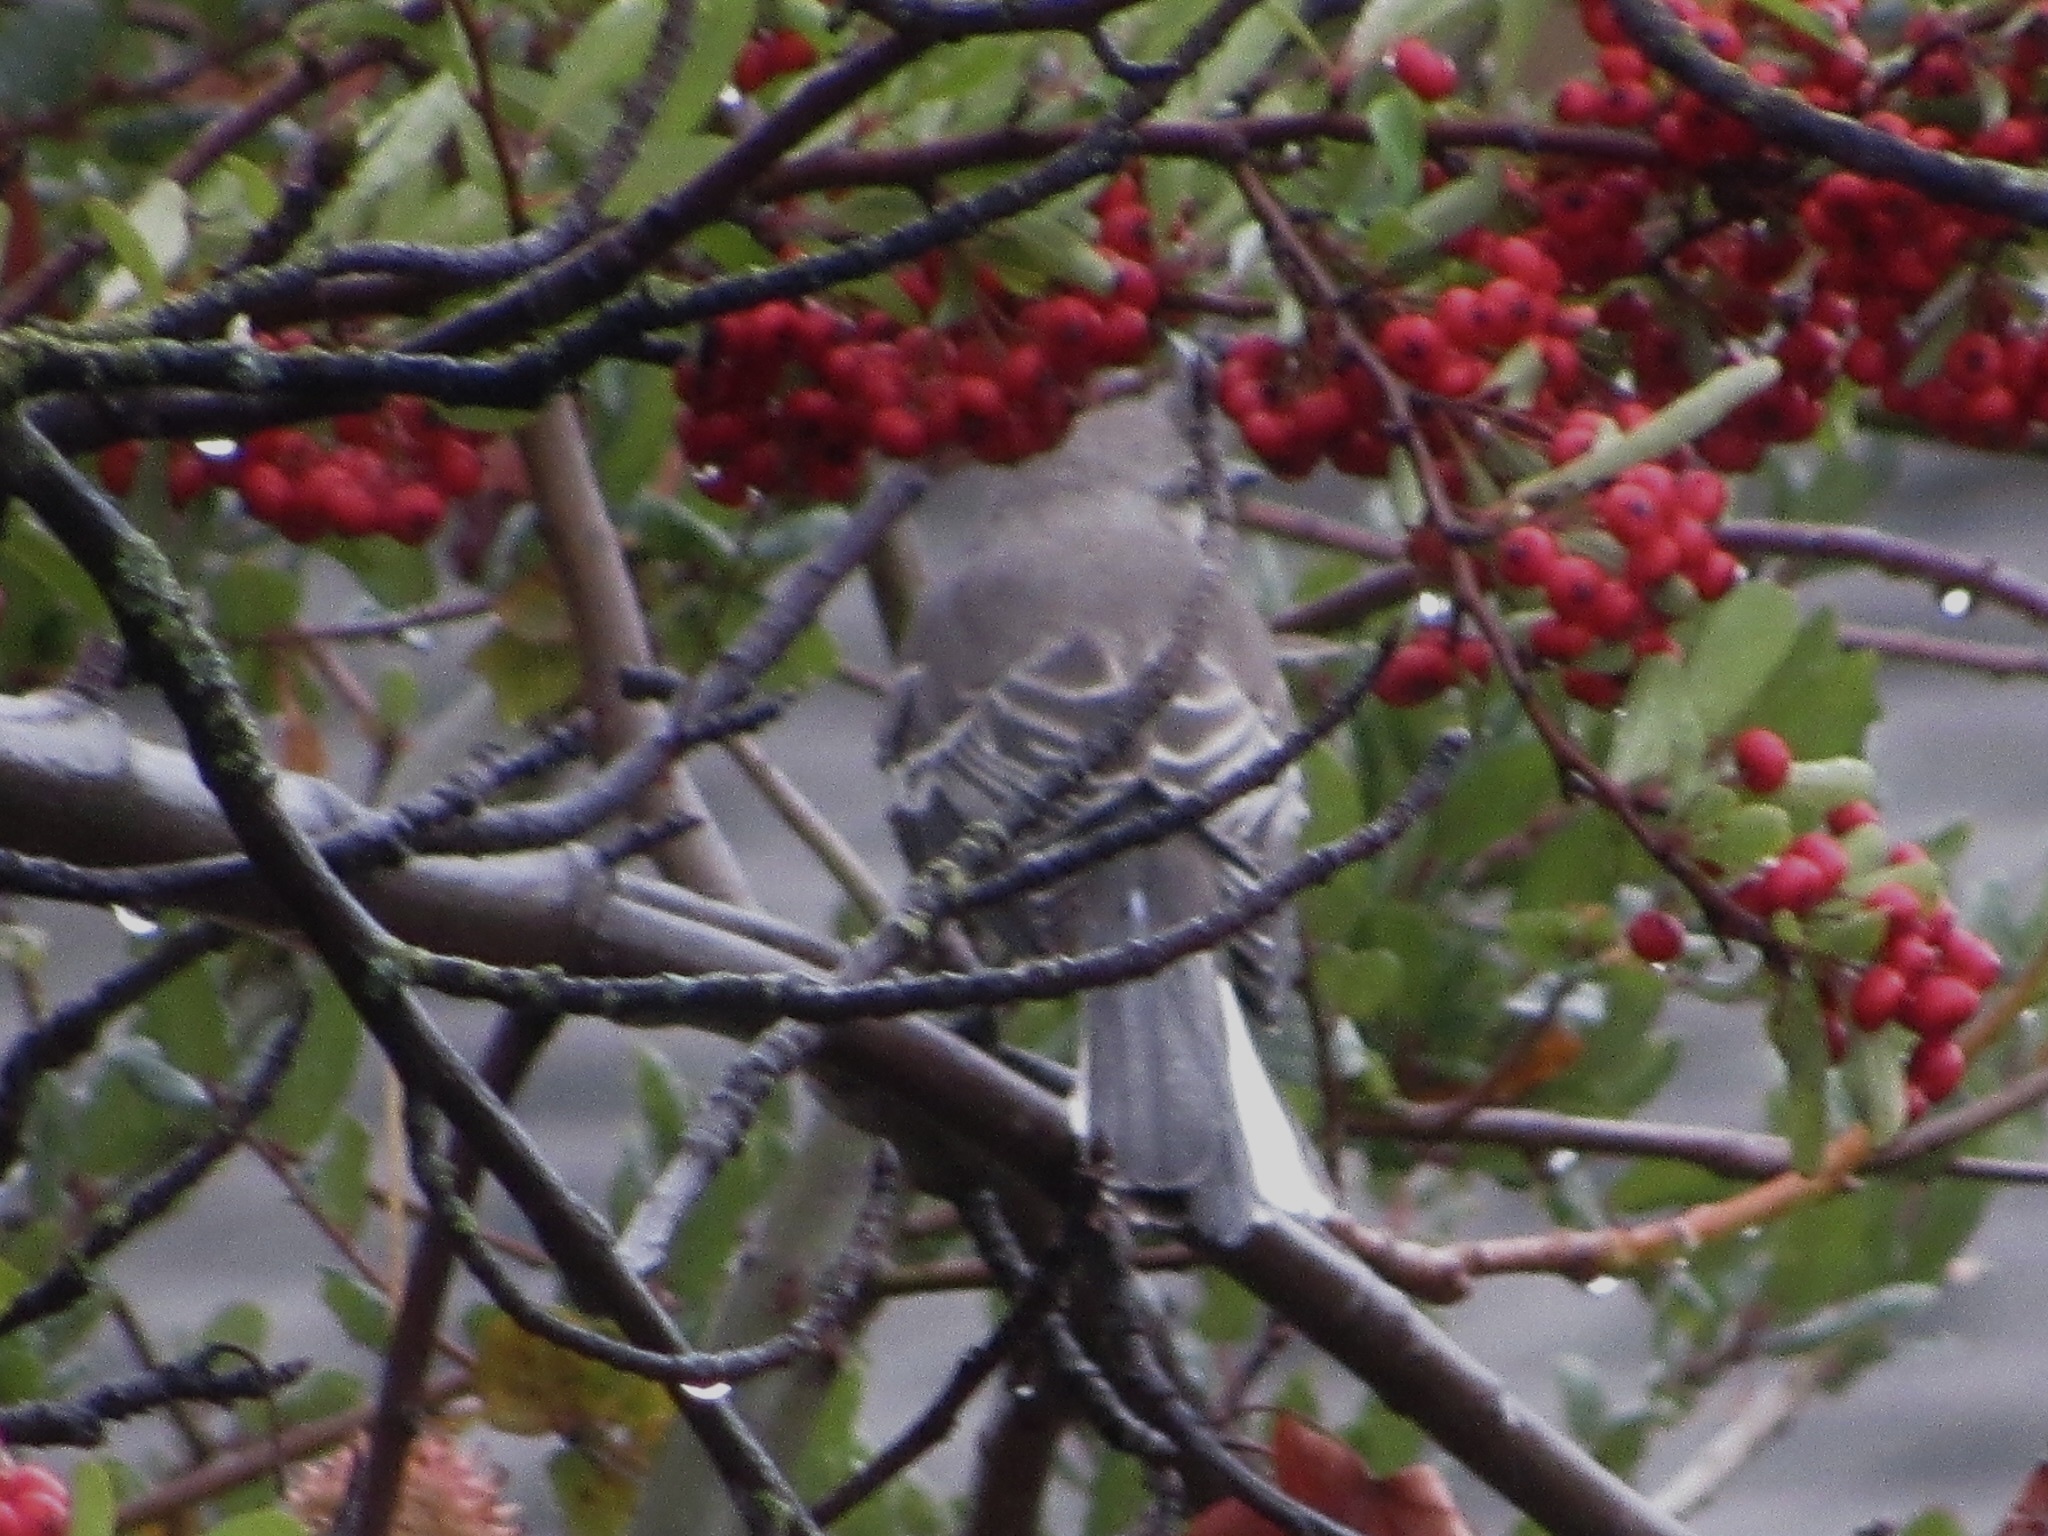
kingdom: Animalia
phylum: Chordata
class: Aves
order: Passeriformes
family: Mimidae
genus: Mimus
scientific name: Mimus polyglottos
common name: Northern mockingbird
